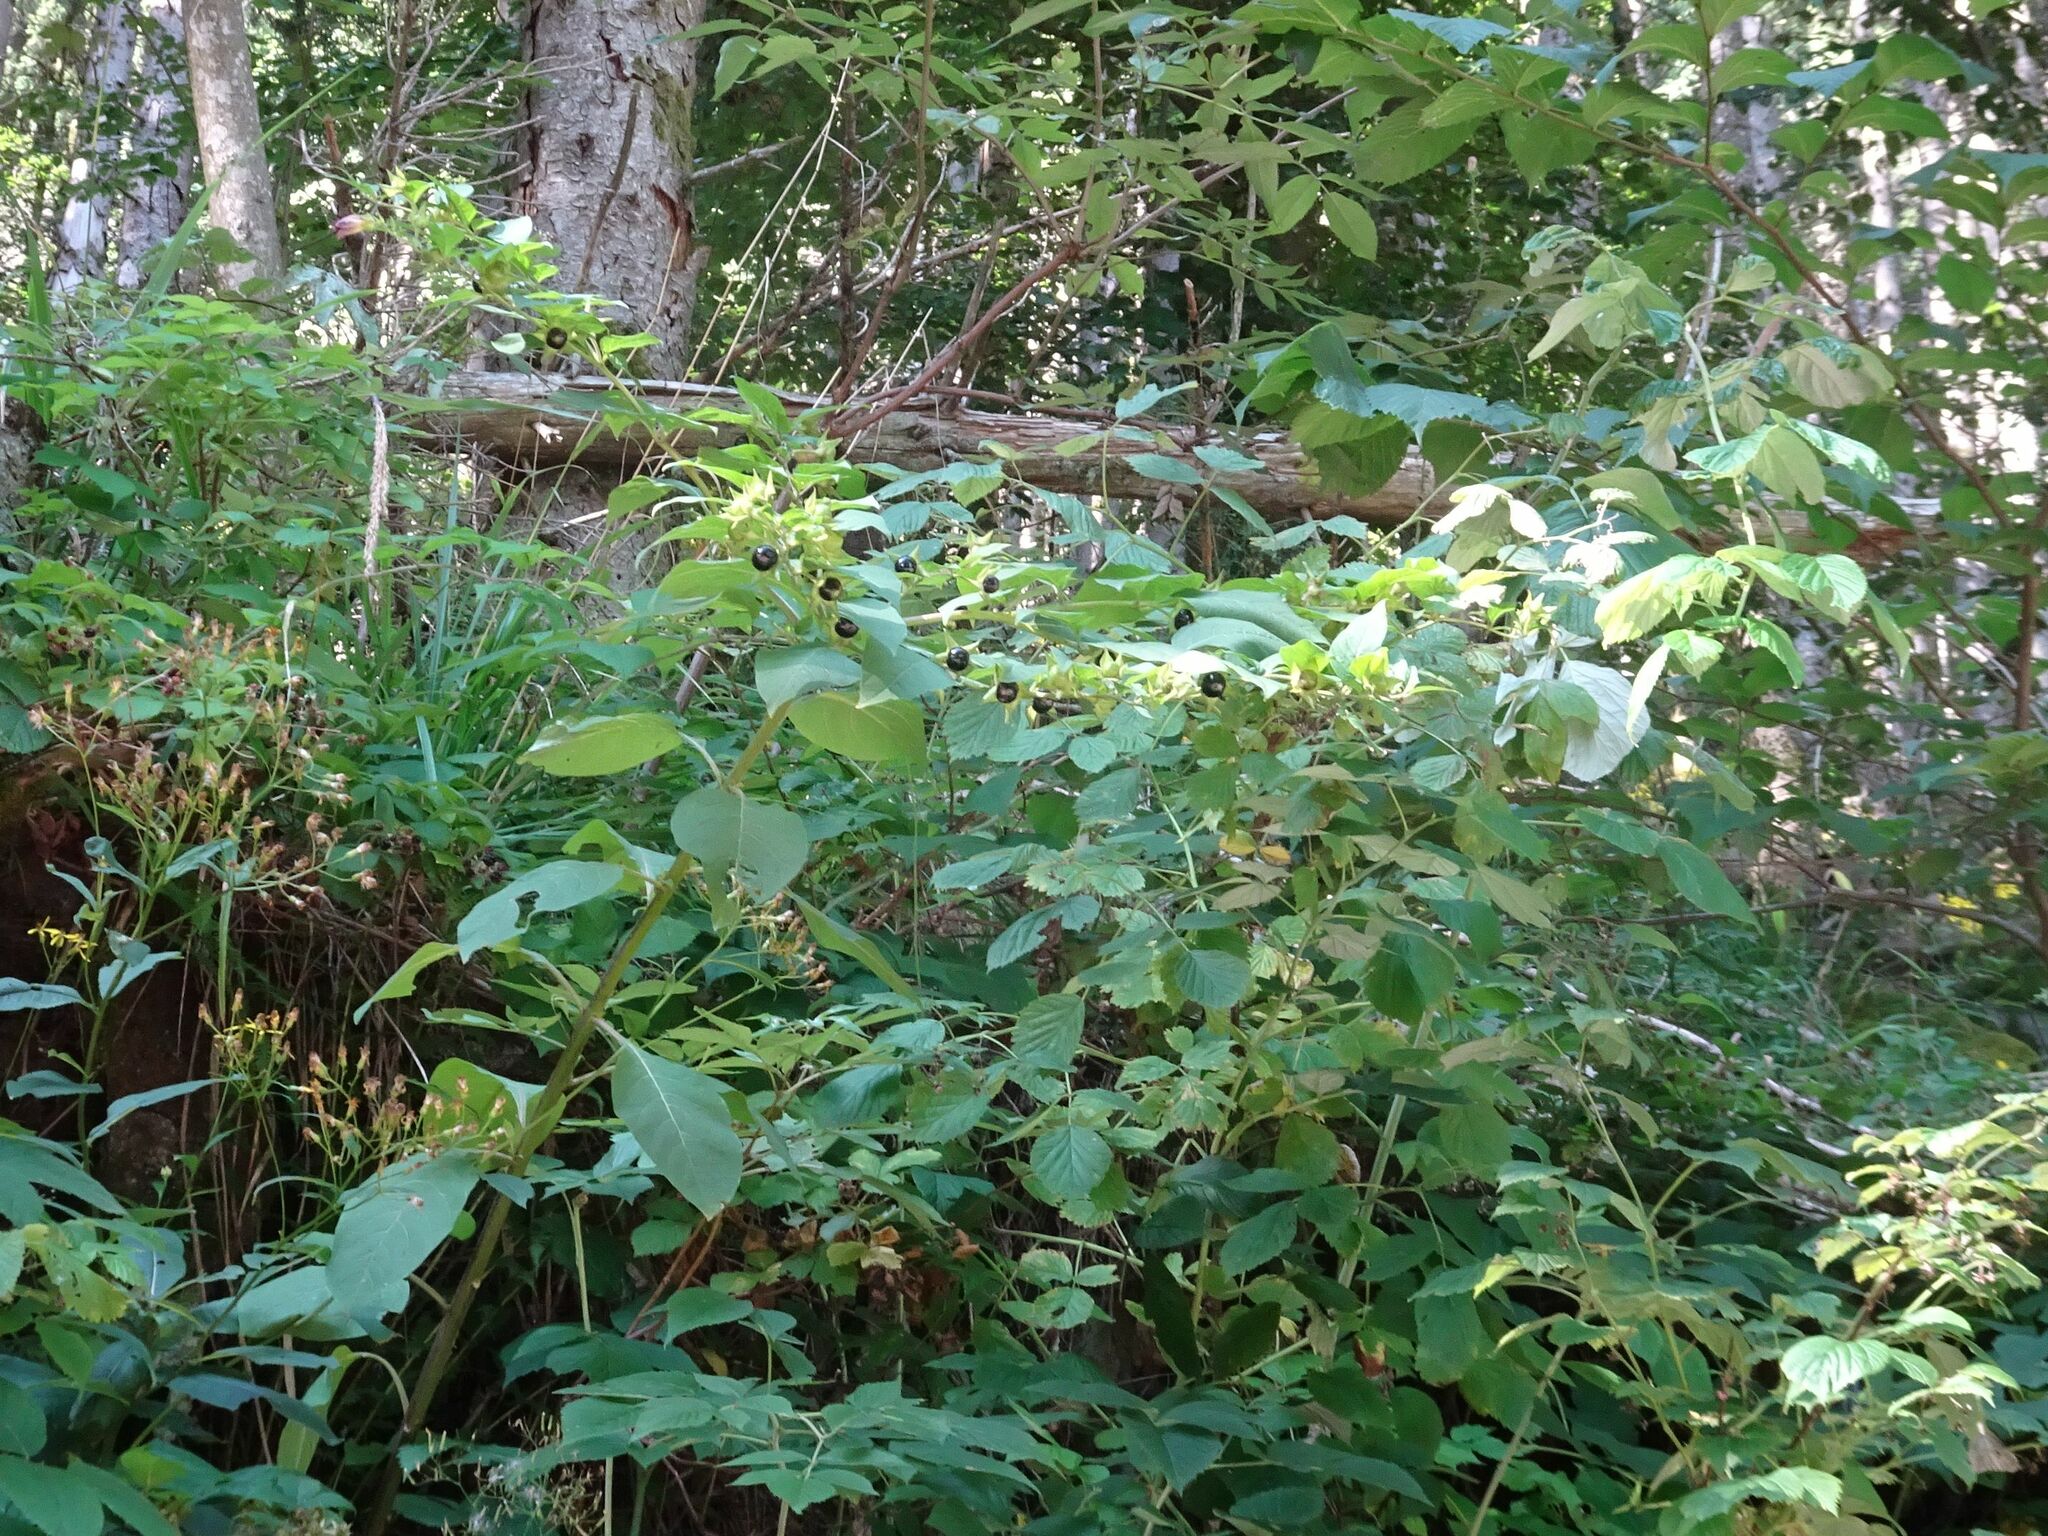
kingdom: Plantae
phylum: Tracheophyta
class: Magnoliopsida
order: Solanales
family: Solanaceae
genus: Atropa
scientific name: Atropa belladonna
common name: Deadly nightshade
